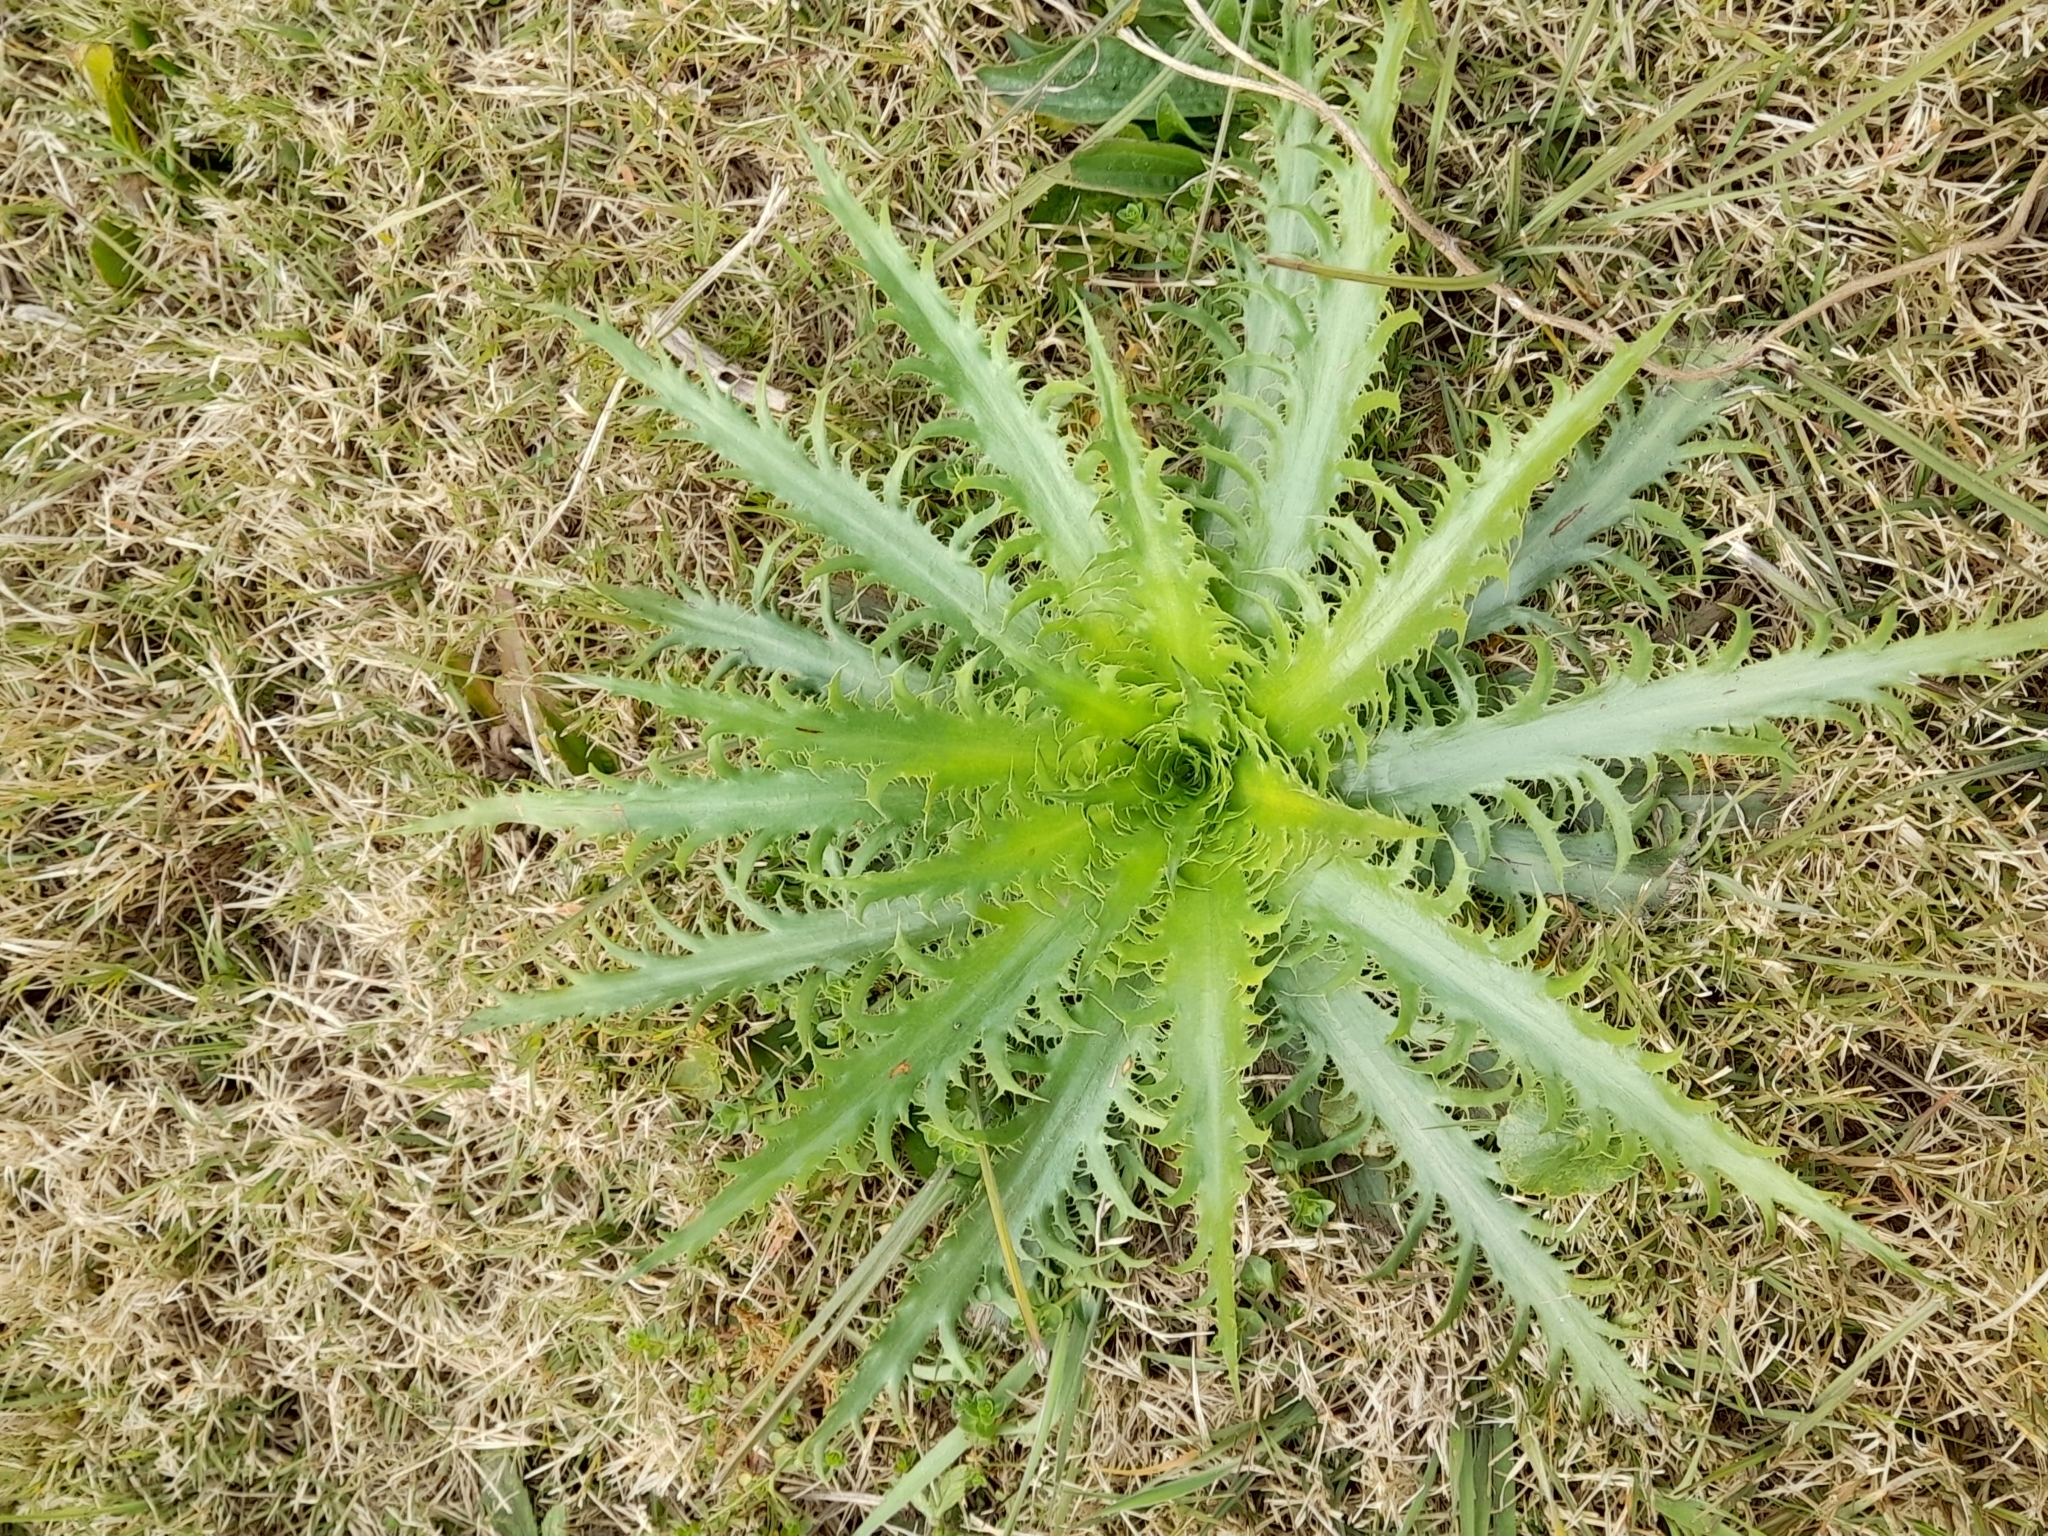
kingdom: Plantae
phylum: Tracheophyta
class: Magnoliopsida
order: Apiales
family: Apiaceae
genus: Eryngium
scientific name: Eryngium serra
